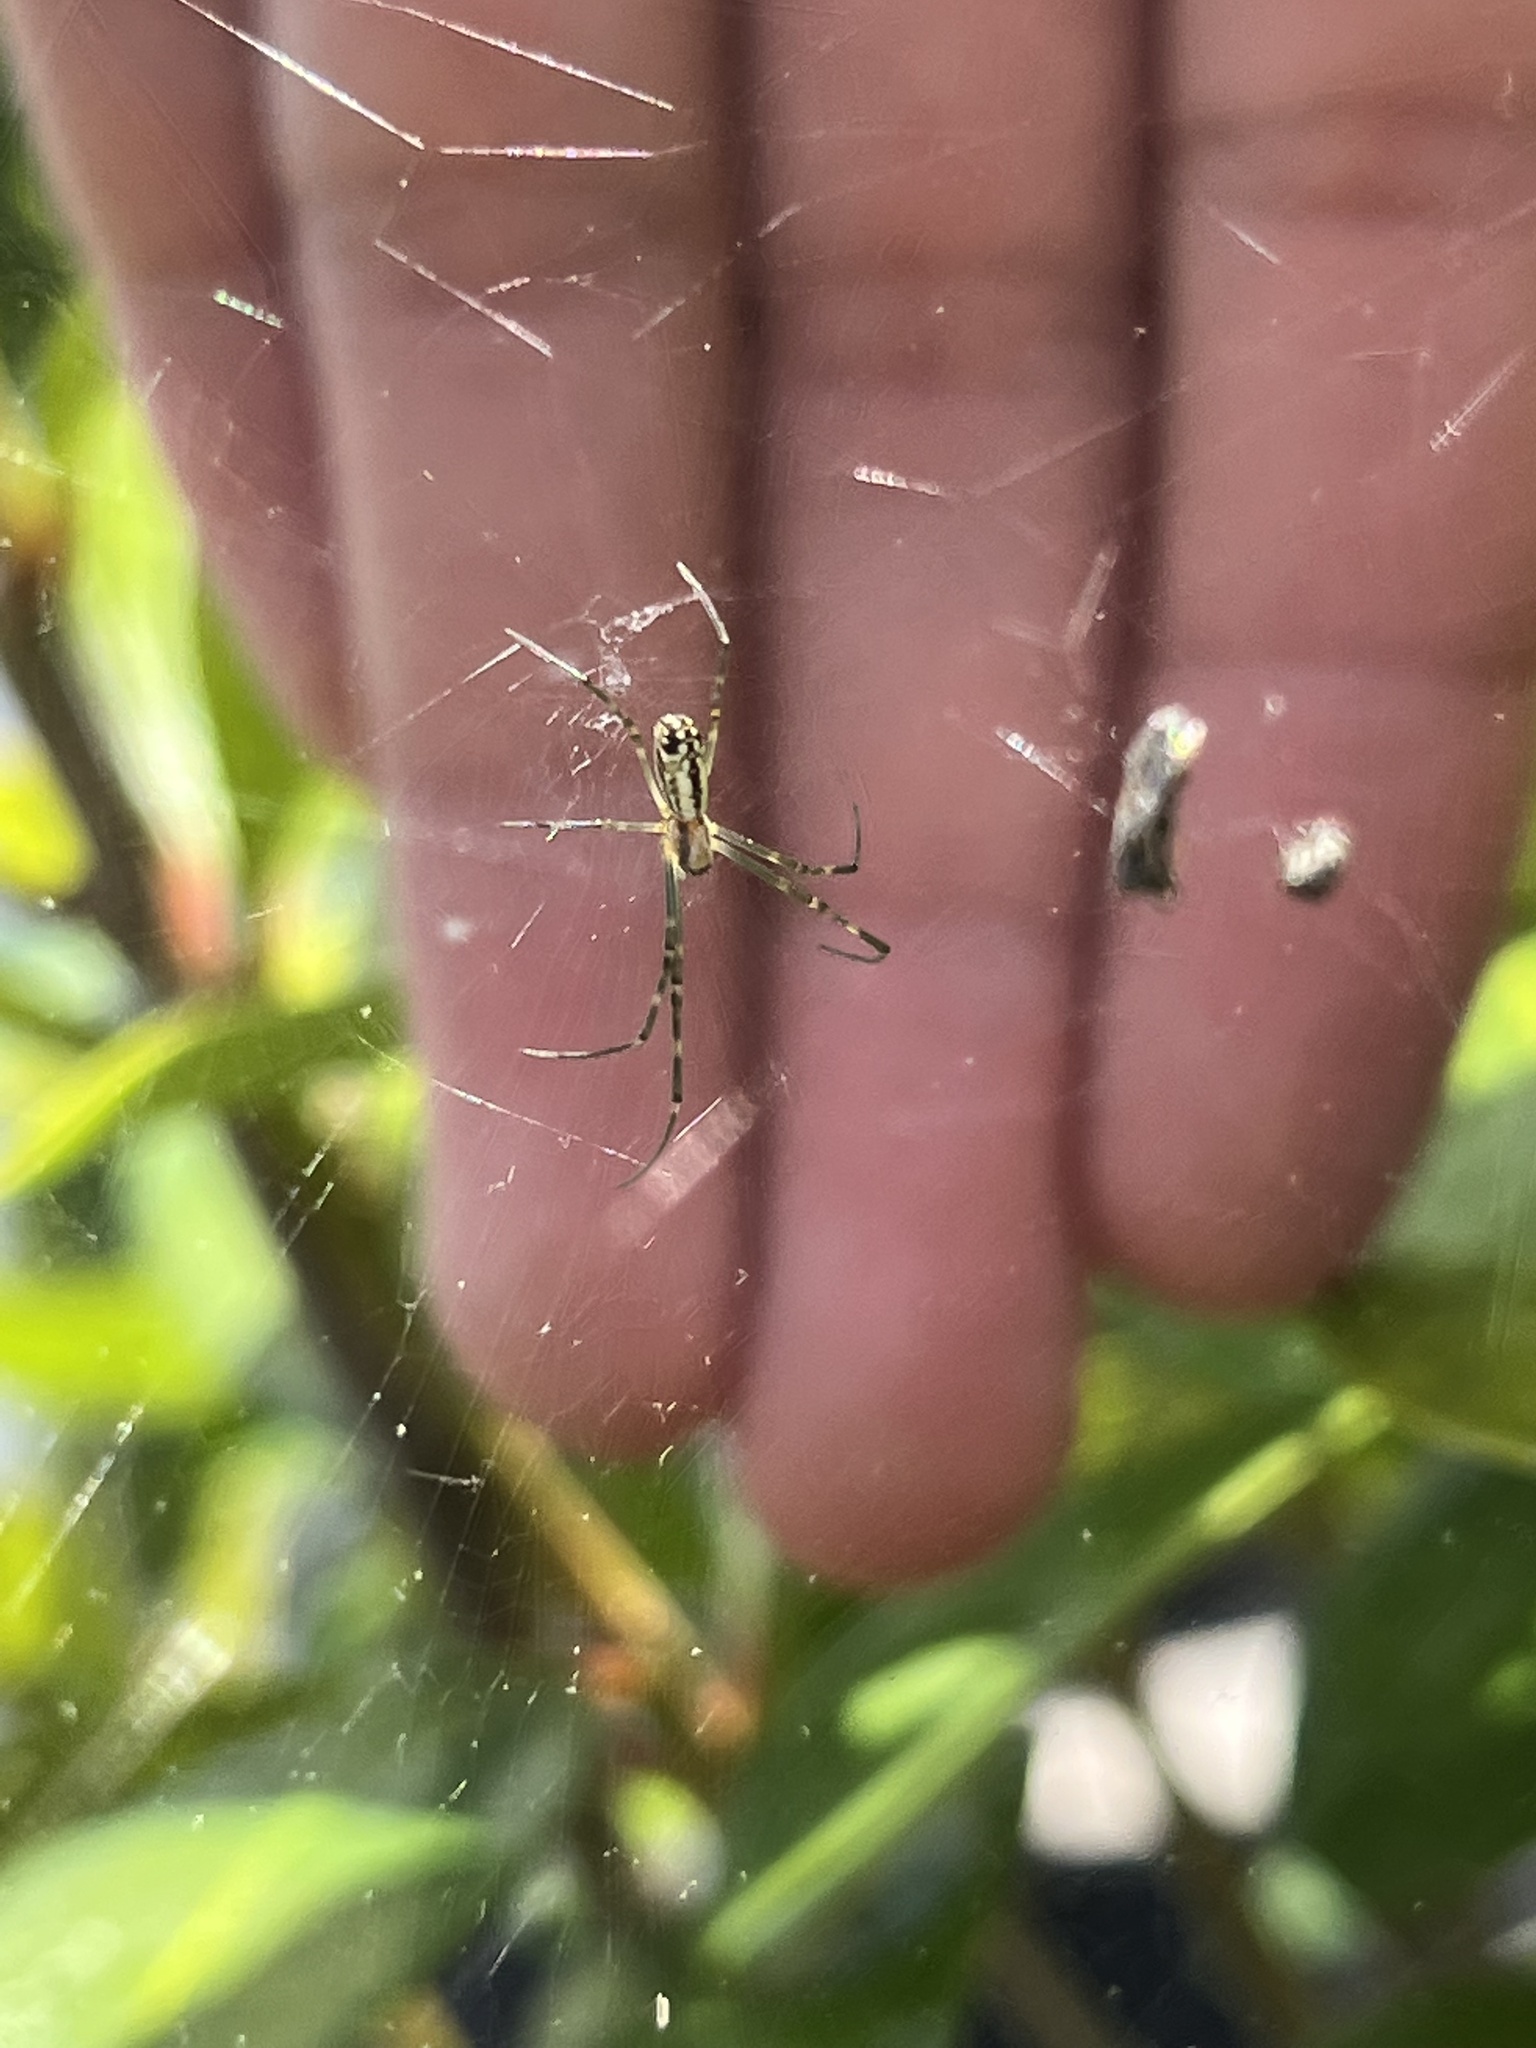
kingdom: Animalia
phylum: Arthropoda
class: Arachnida
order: Araneae
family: Araneidae
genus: Trichonephila
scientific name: Trichonephila clavata
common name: Jorō spider
